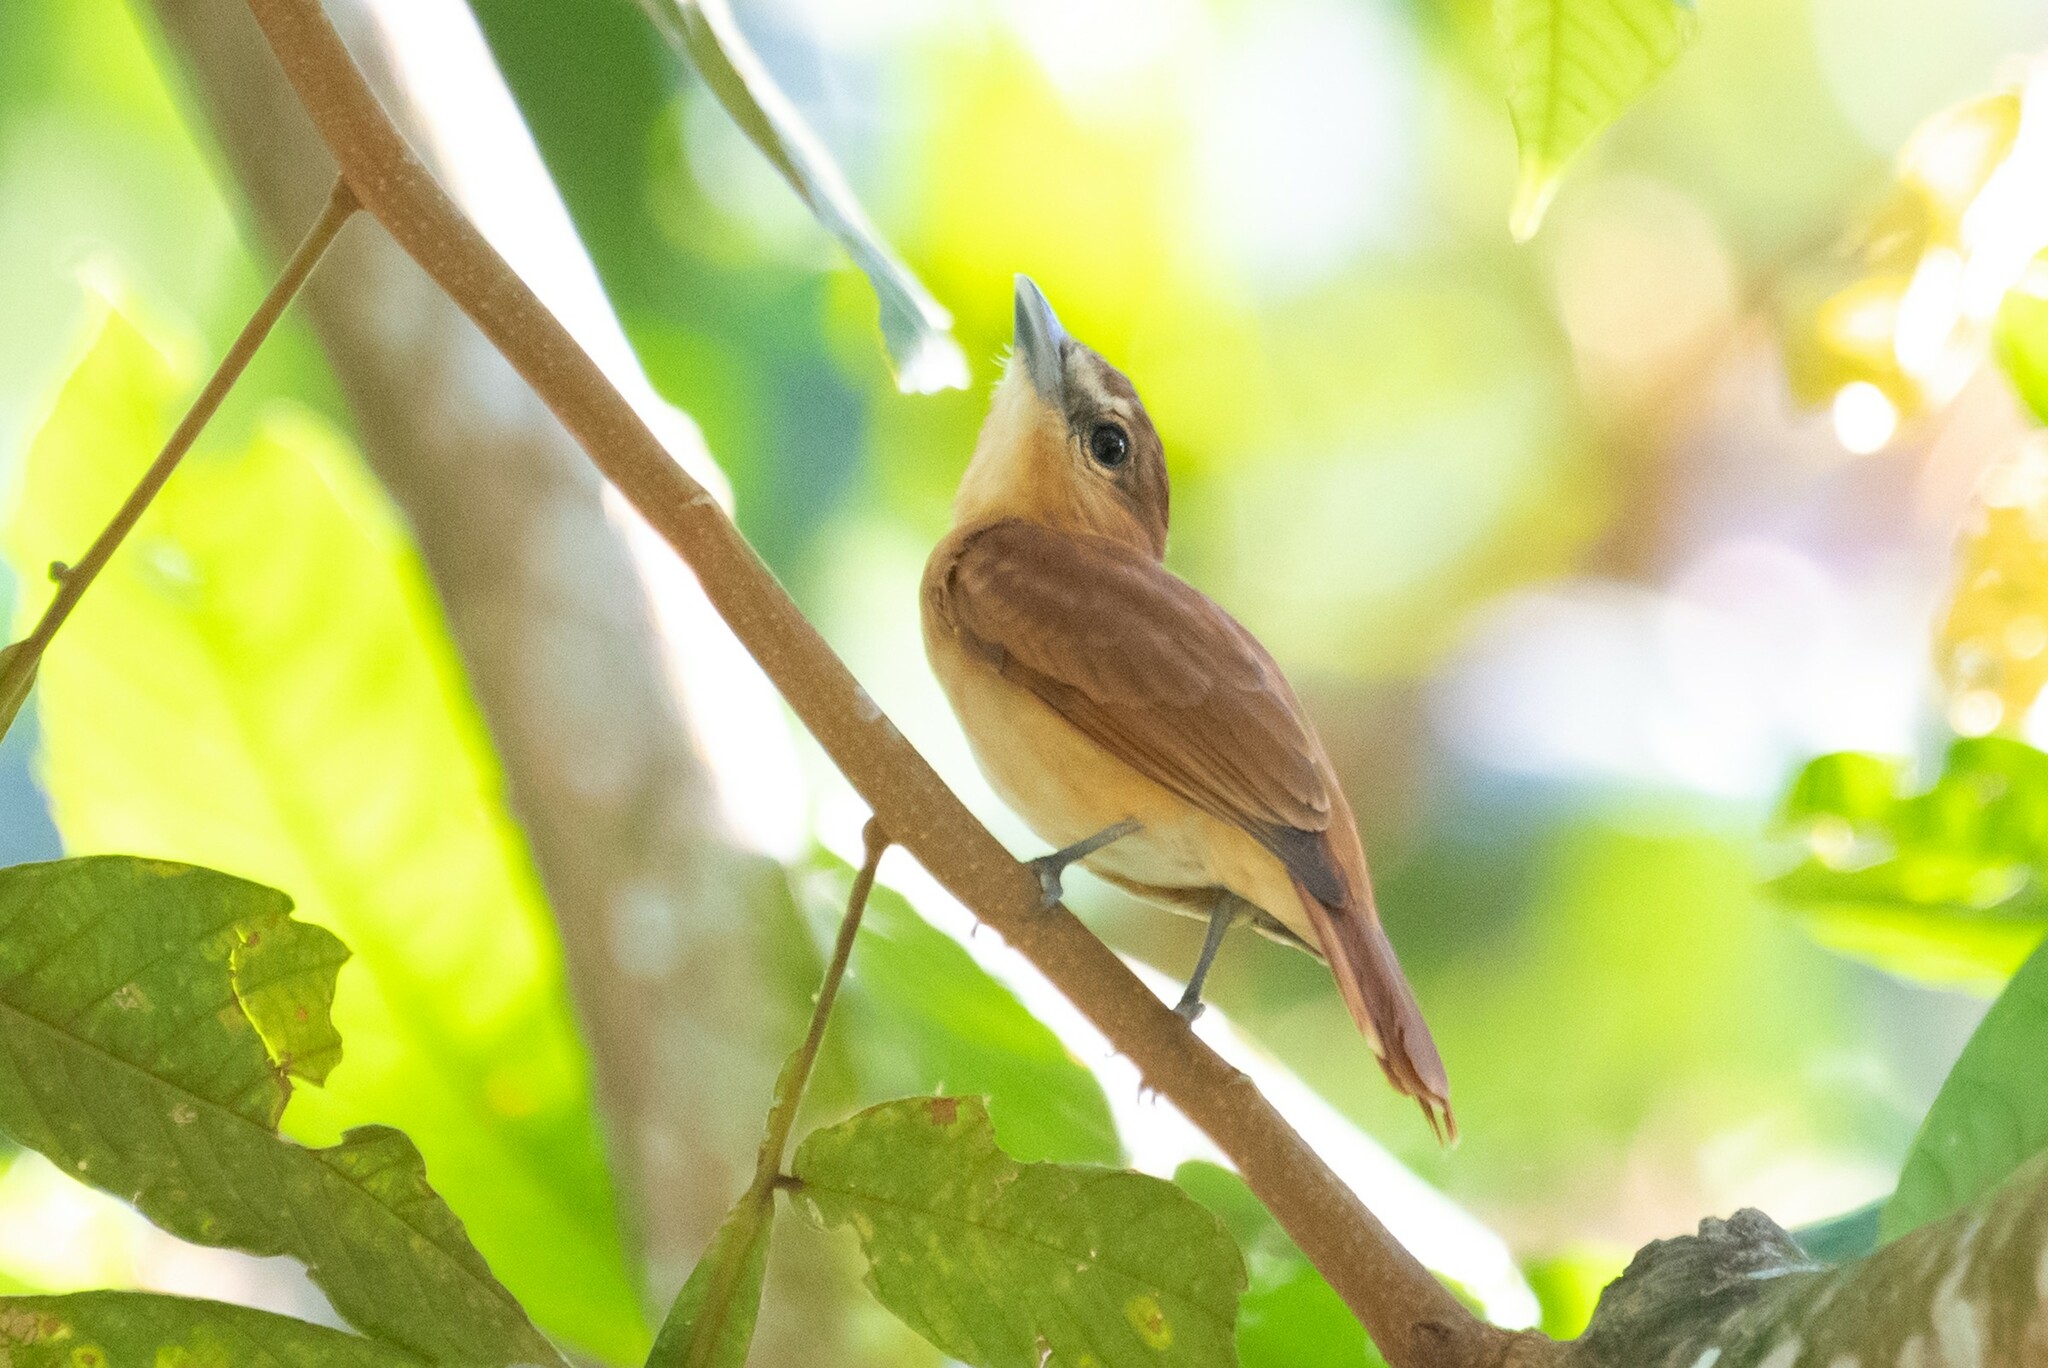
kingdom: Animalia
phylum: Chordata
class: Aves
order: Passeriformes
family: Cotingidae
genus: Pachyramphus
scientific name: Pachyramphus cinnamomeus
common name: Cinnamon becard
